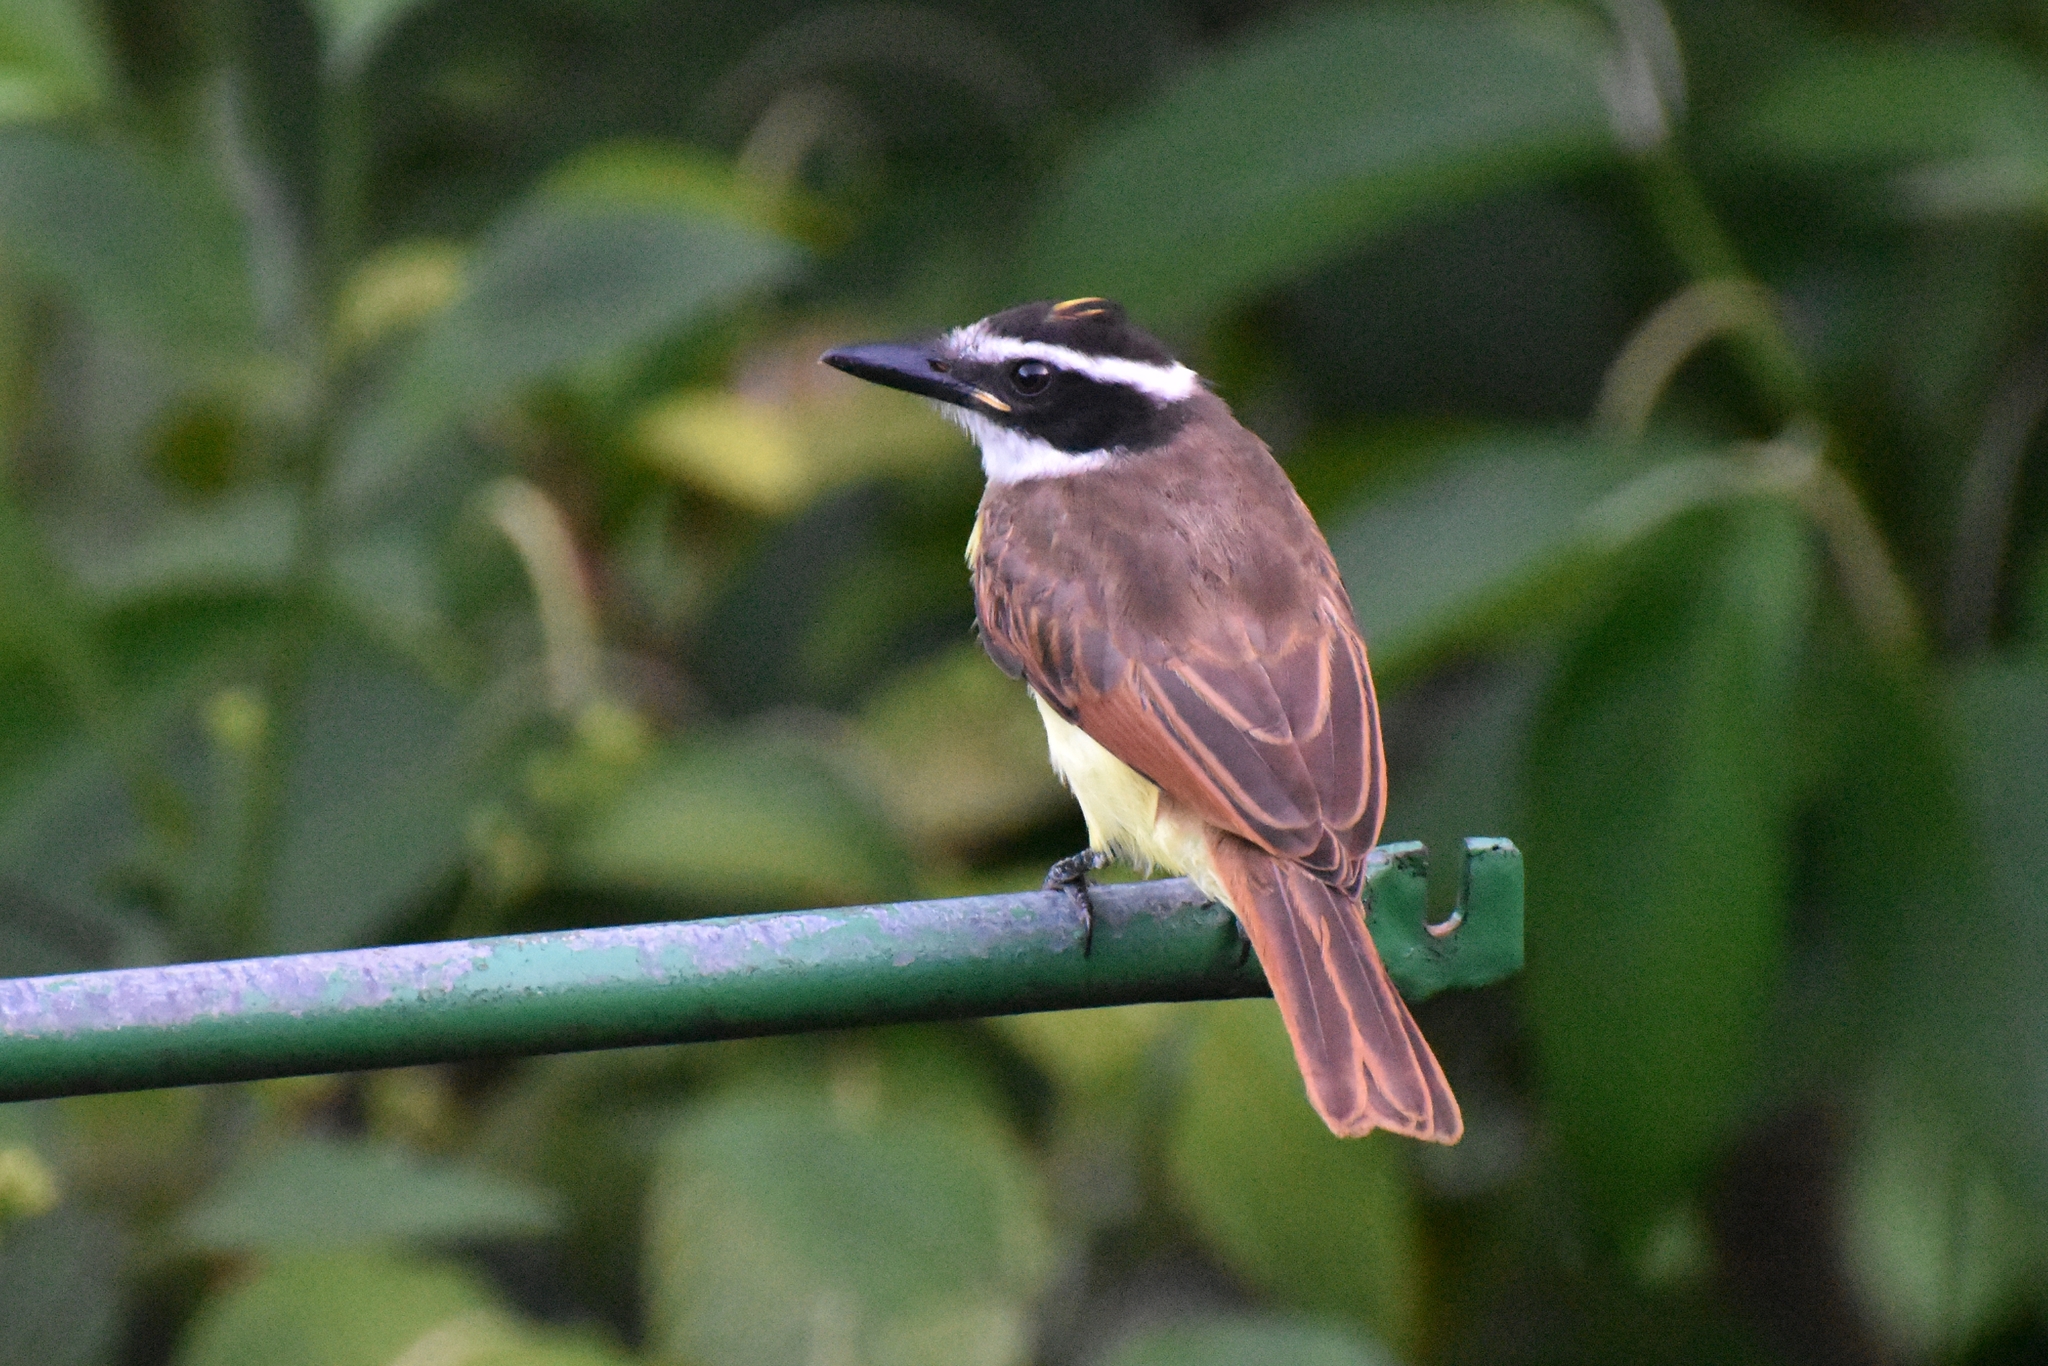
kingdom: Animalia
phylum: Chordata
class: Aves
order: Passeriformes
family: Tyrannidae
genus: Pitangus
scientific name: Pitangus sulphuratus
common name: Great kiskadee
